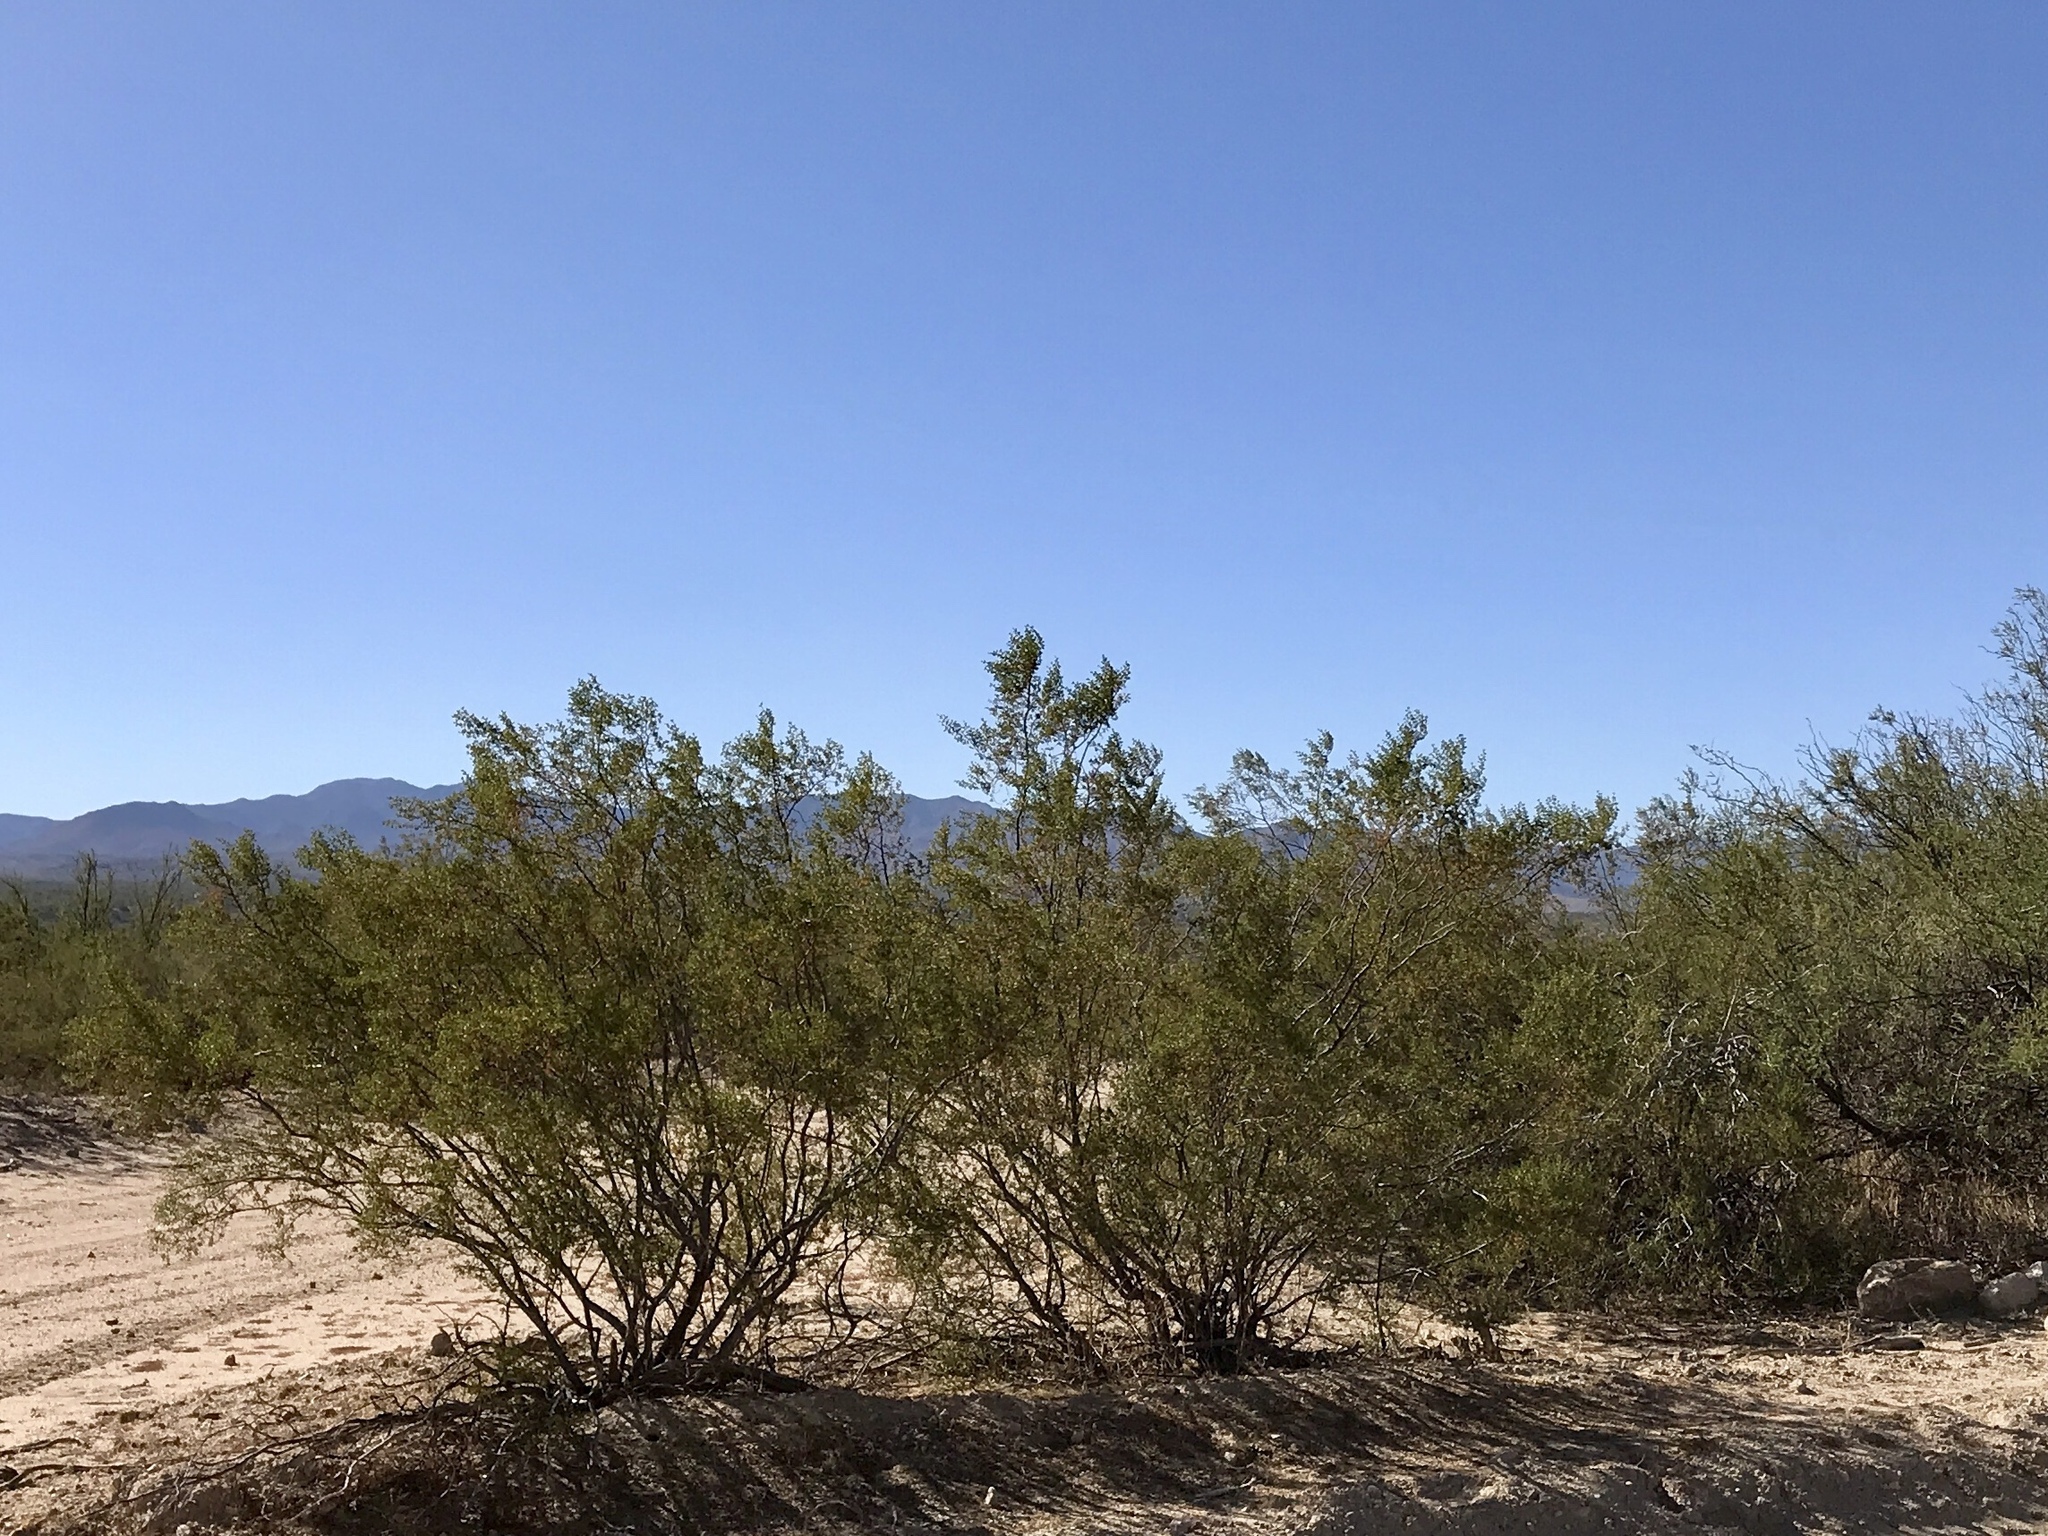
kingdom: Plantae
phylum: Tracheophyta
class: Magnoliopsida
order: Zygophyllales
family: Zygophyllaceae
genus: Larrea
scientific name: Larrea tridentata
